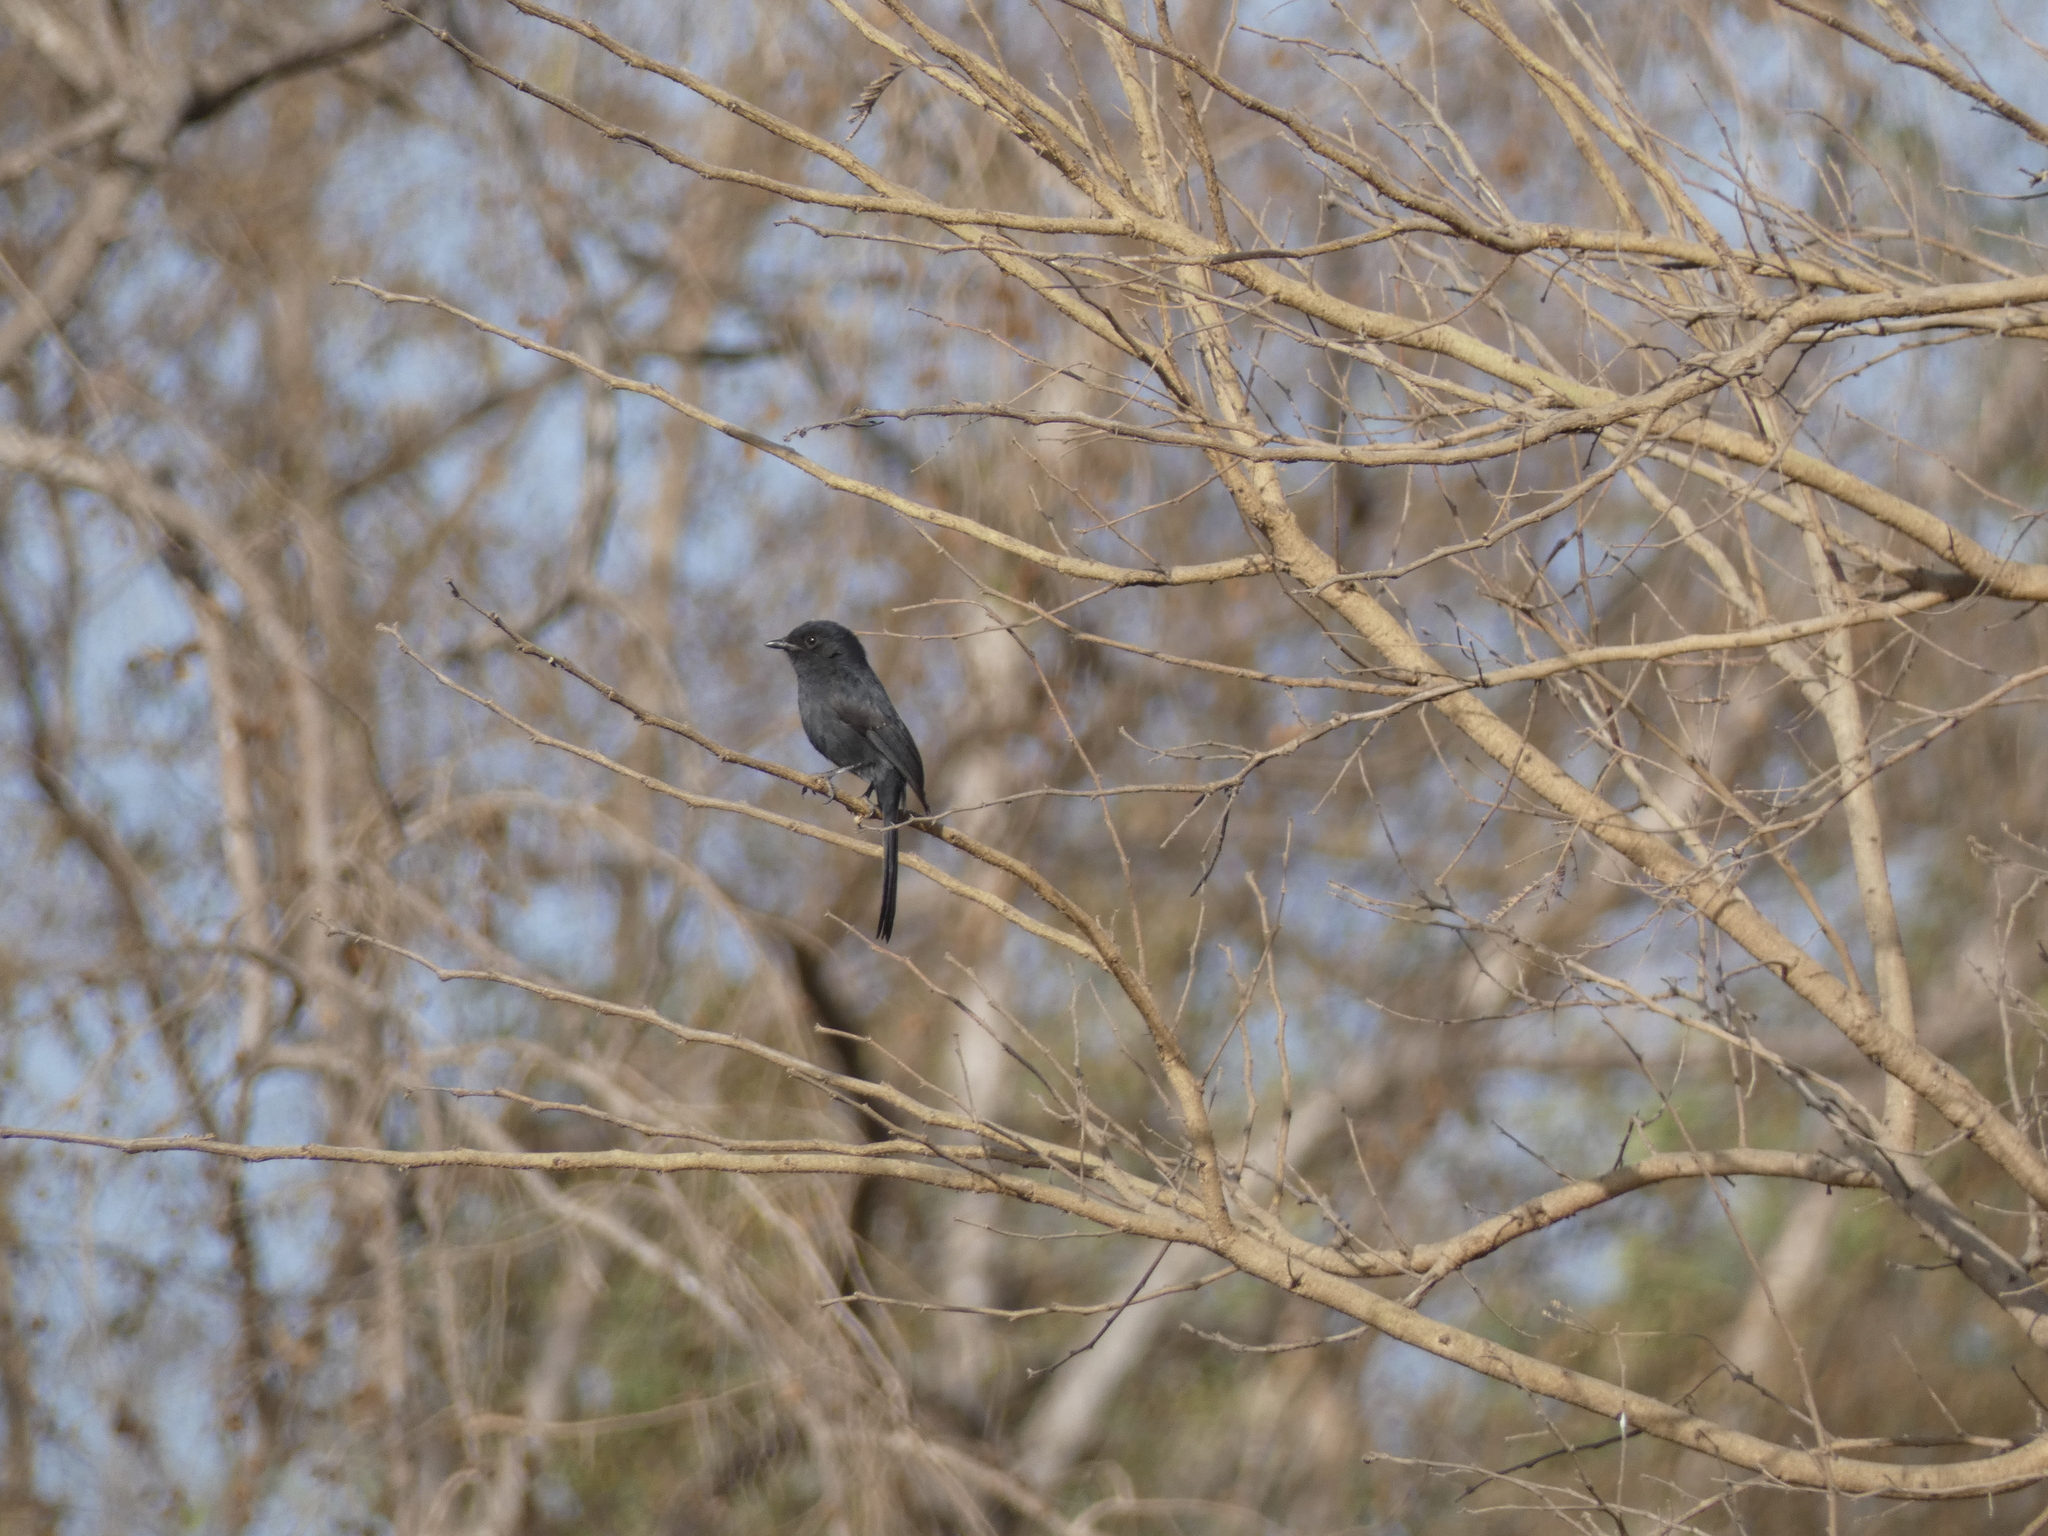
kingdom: Animalia
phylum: Chordata
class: Aves
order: Passeriformes
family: Muscicapidae
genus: Melaenornis
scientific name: Melaenornis edolioides
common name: Northern black flycatcher
